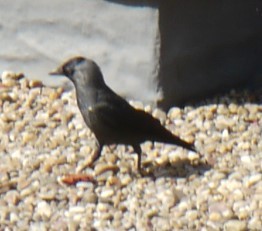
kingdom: Animalia
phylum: Chordata
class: Aves
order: Passeriformes
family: Corvidae
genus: Coloeus
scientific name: Coloeus monedula
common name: Western jackdaw
